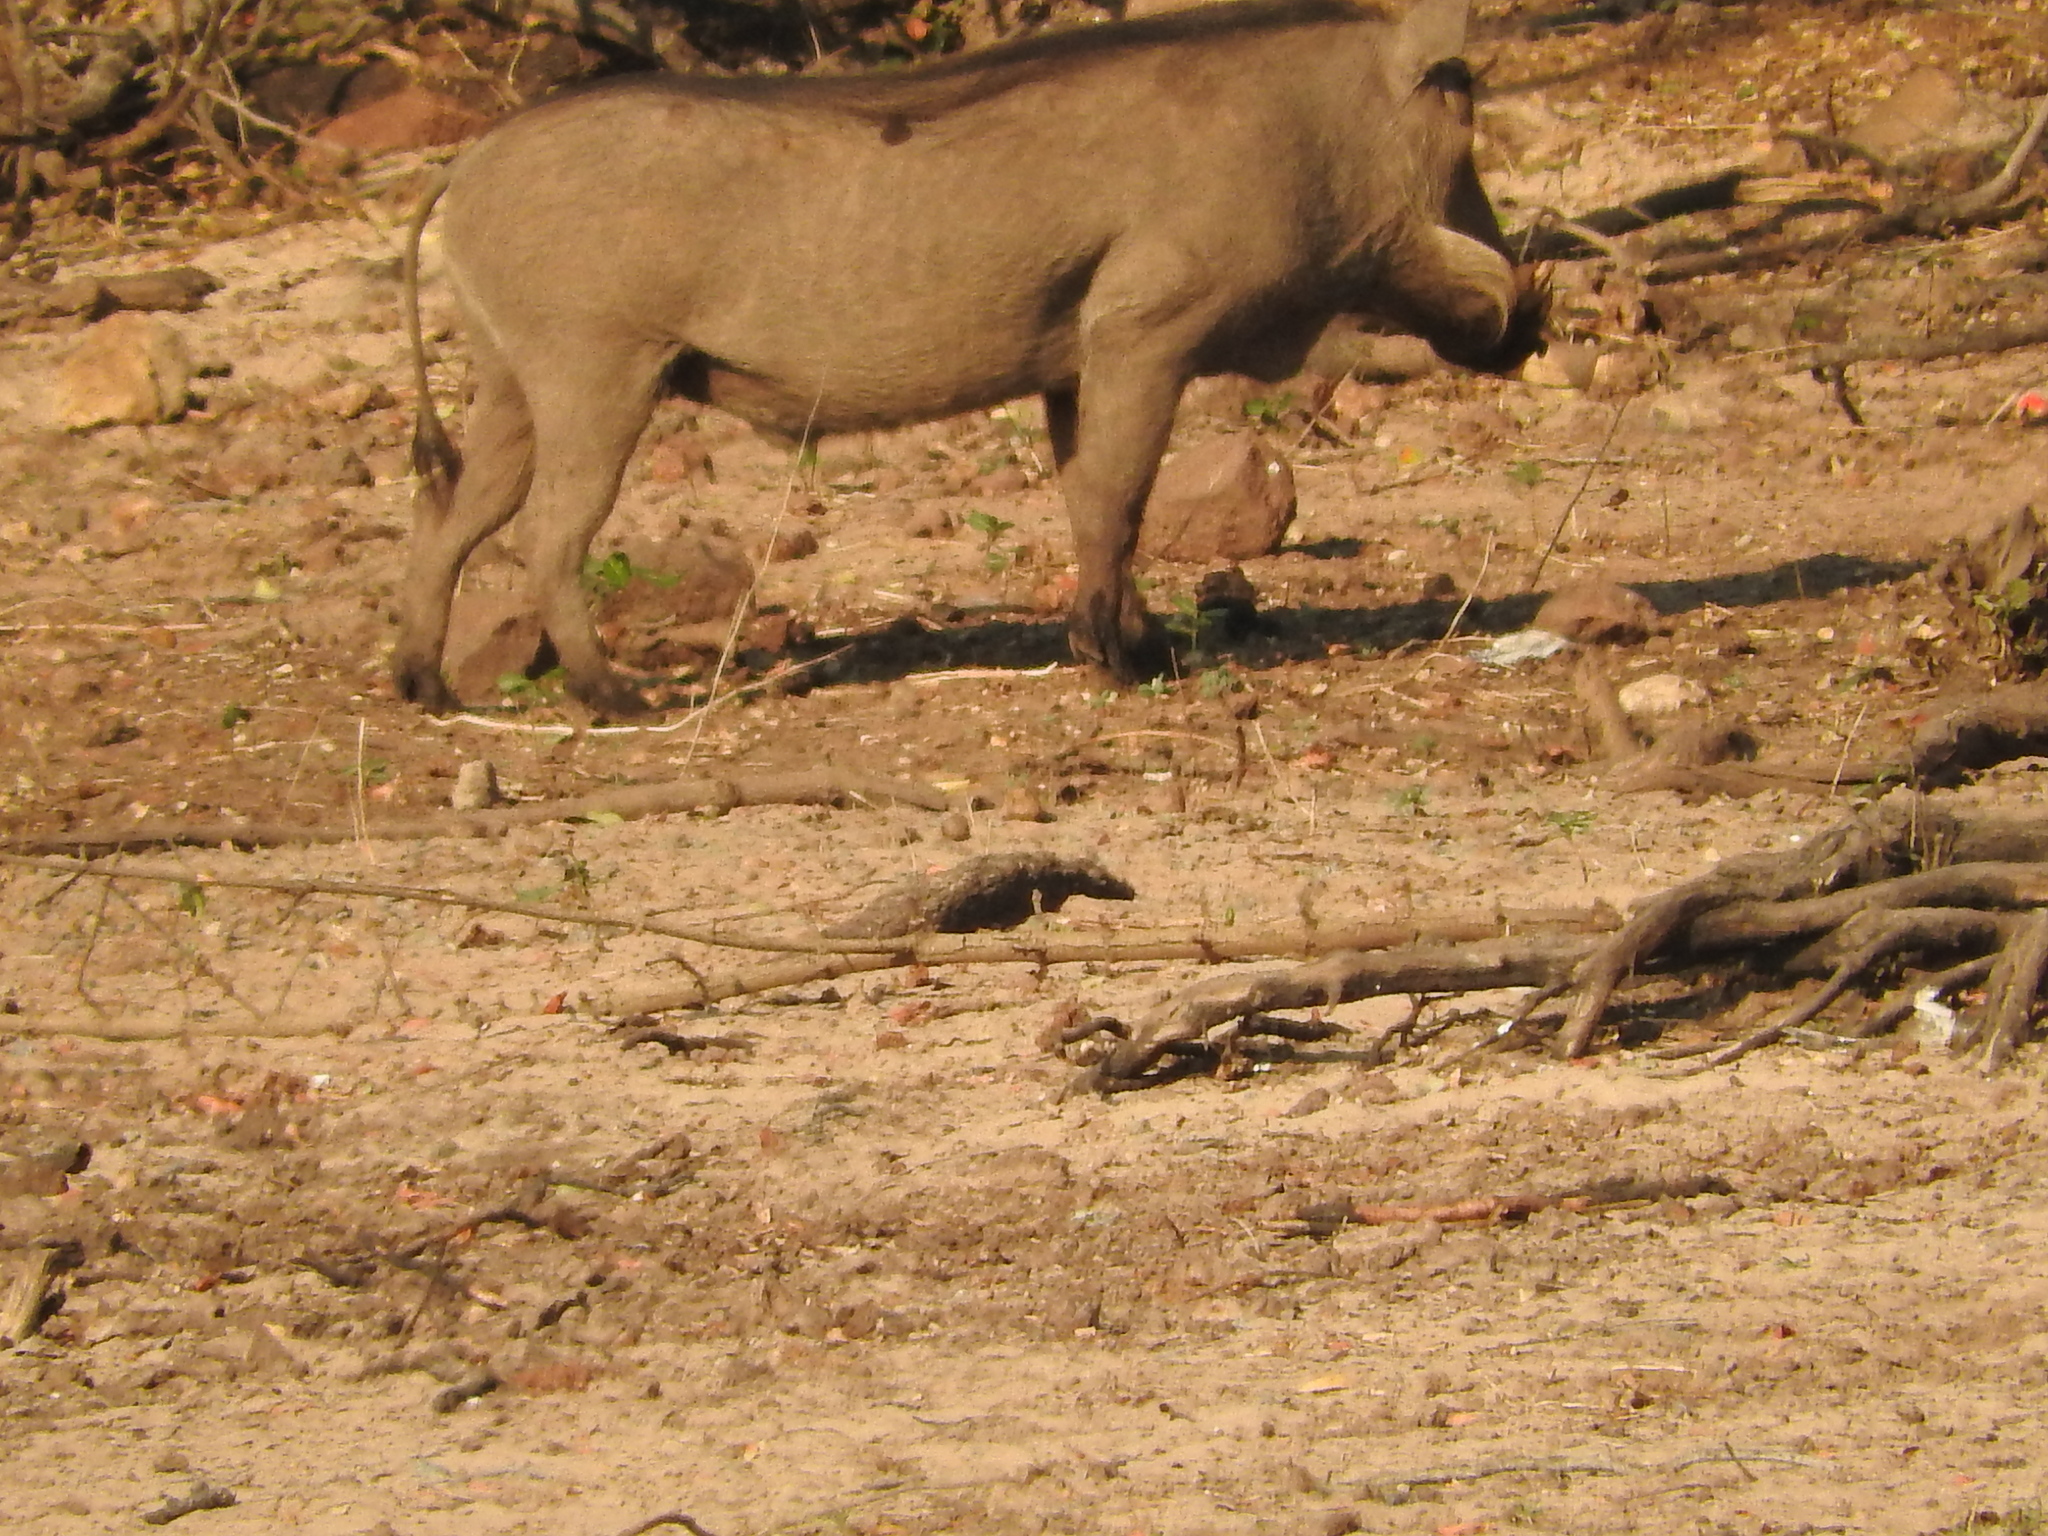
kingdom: Animalia
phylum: Chordata
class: Mammalia
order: Artiodactyla
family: Suidae
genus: Phacochoerus
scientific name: Phacochoerus africanus
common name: Common warthog
